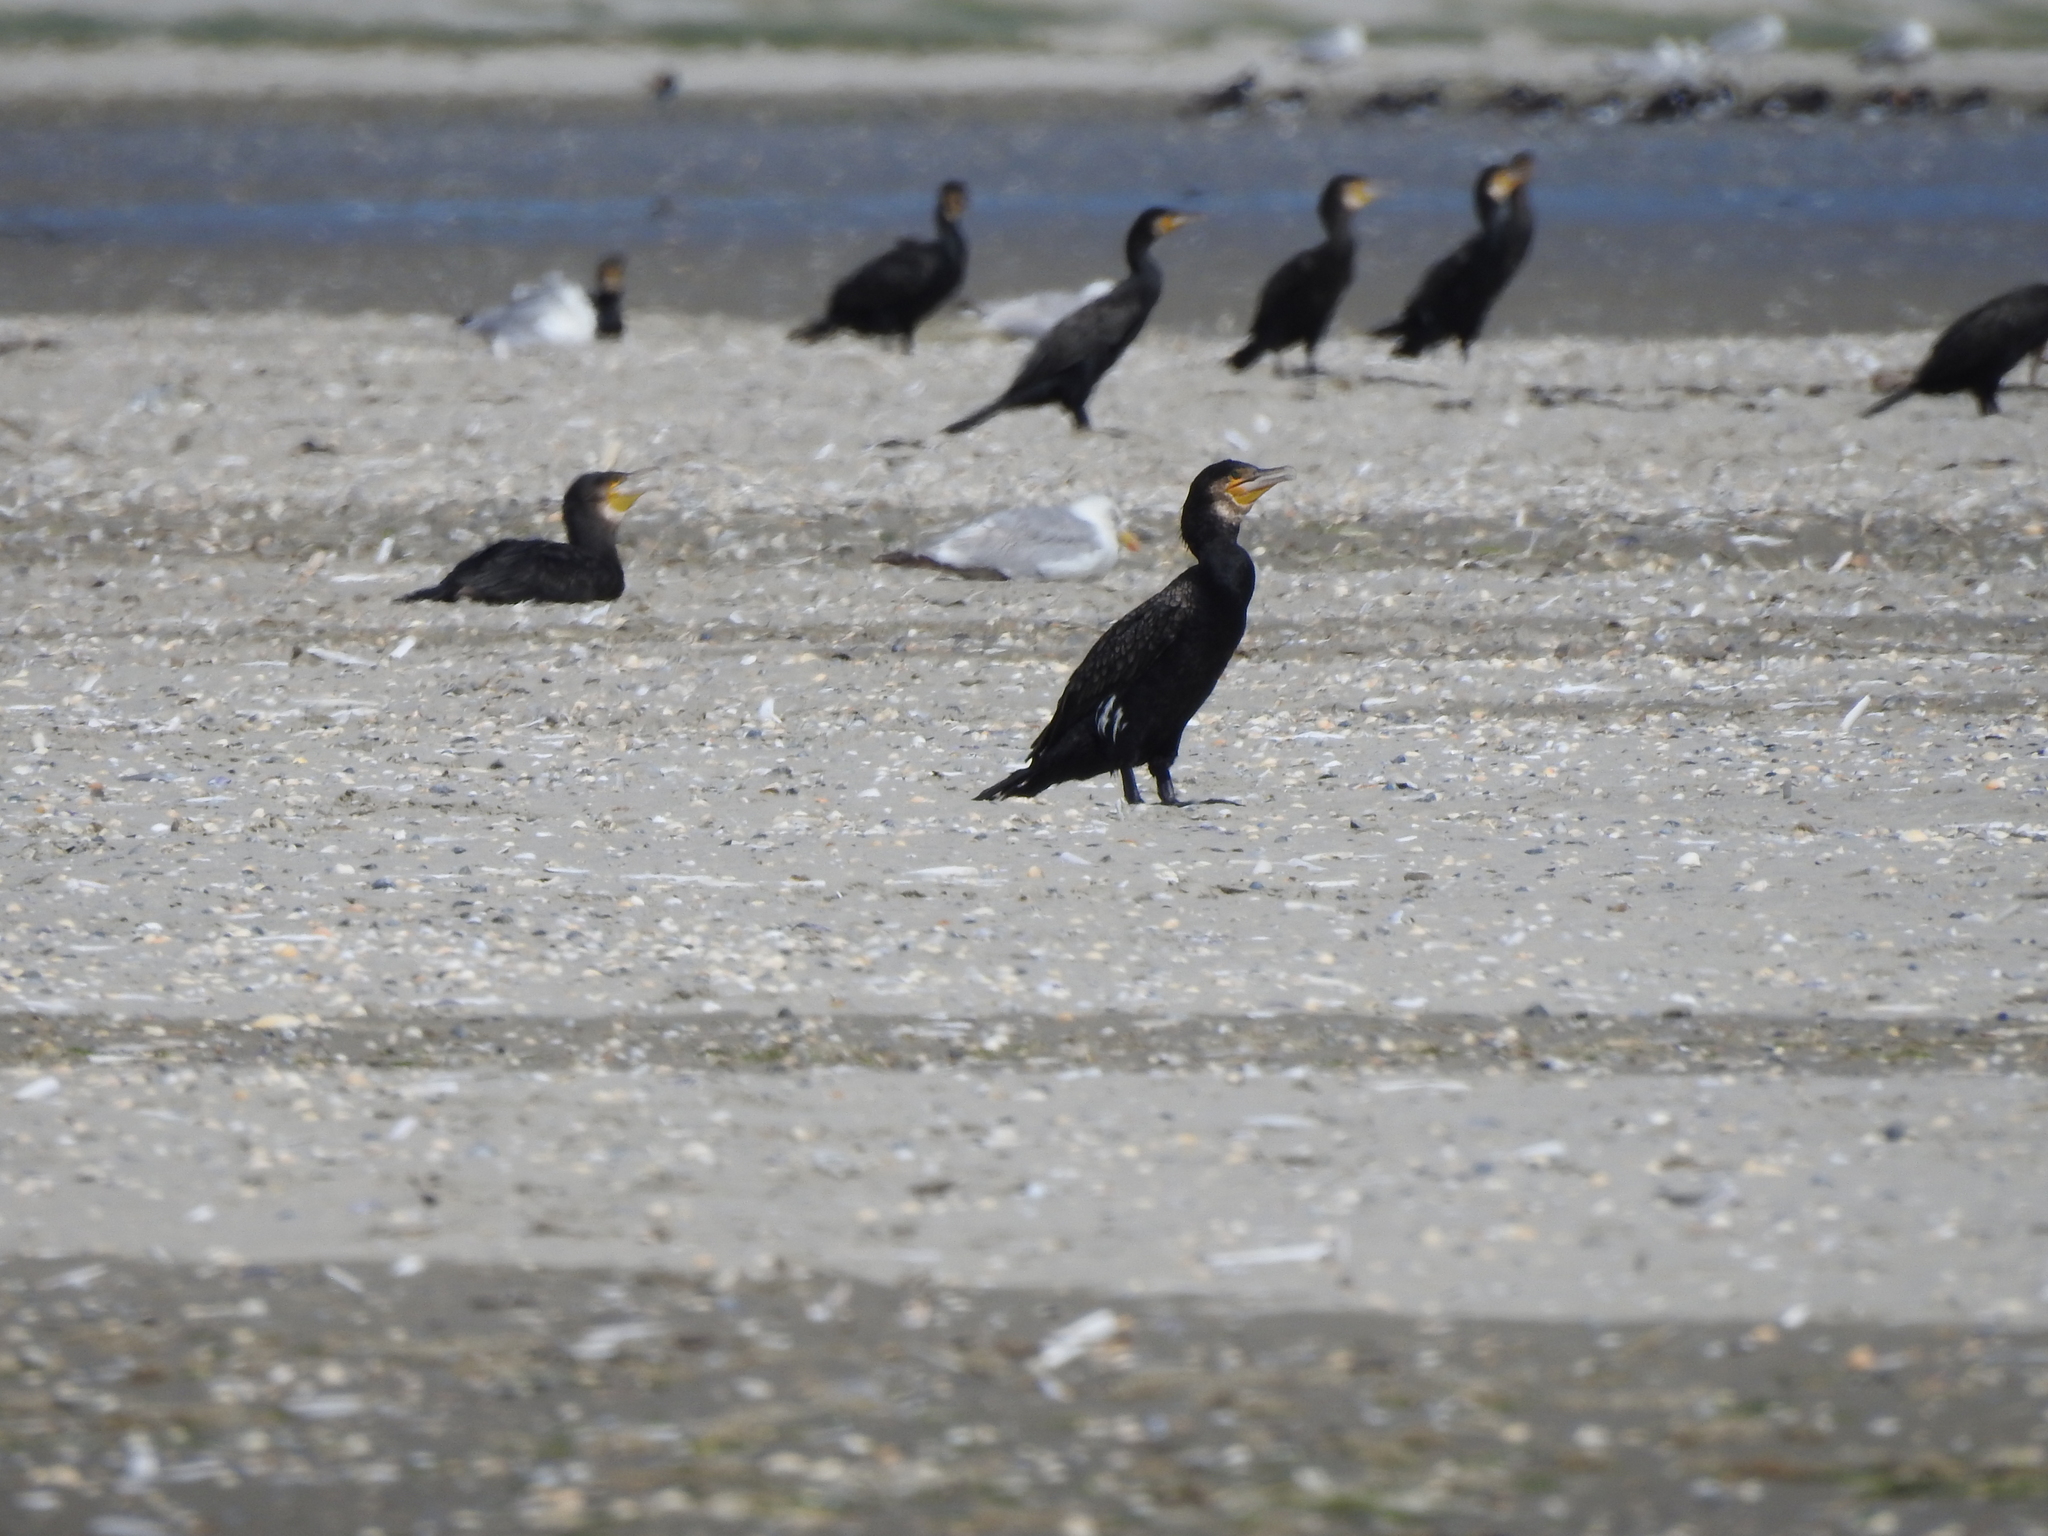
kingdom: Animalia
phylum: Chordata
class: Aves
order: Suliformes
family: Phalacrocoracidae
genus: Phalacrocorax
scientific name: Phalacrocorax carbo
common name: Great cormorant
